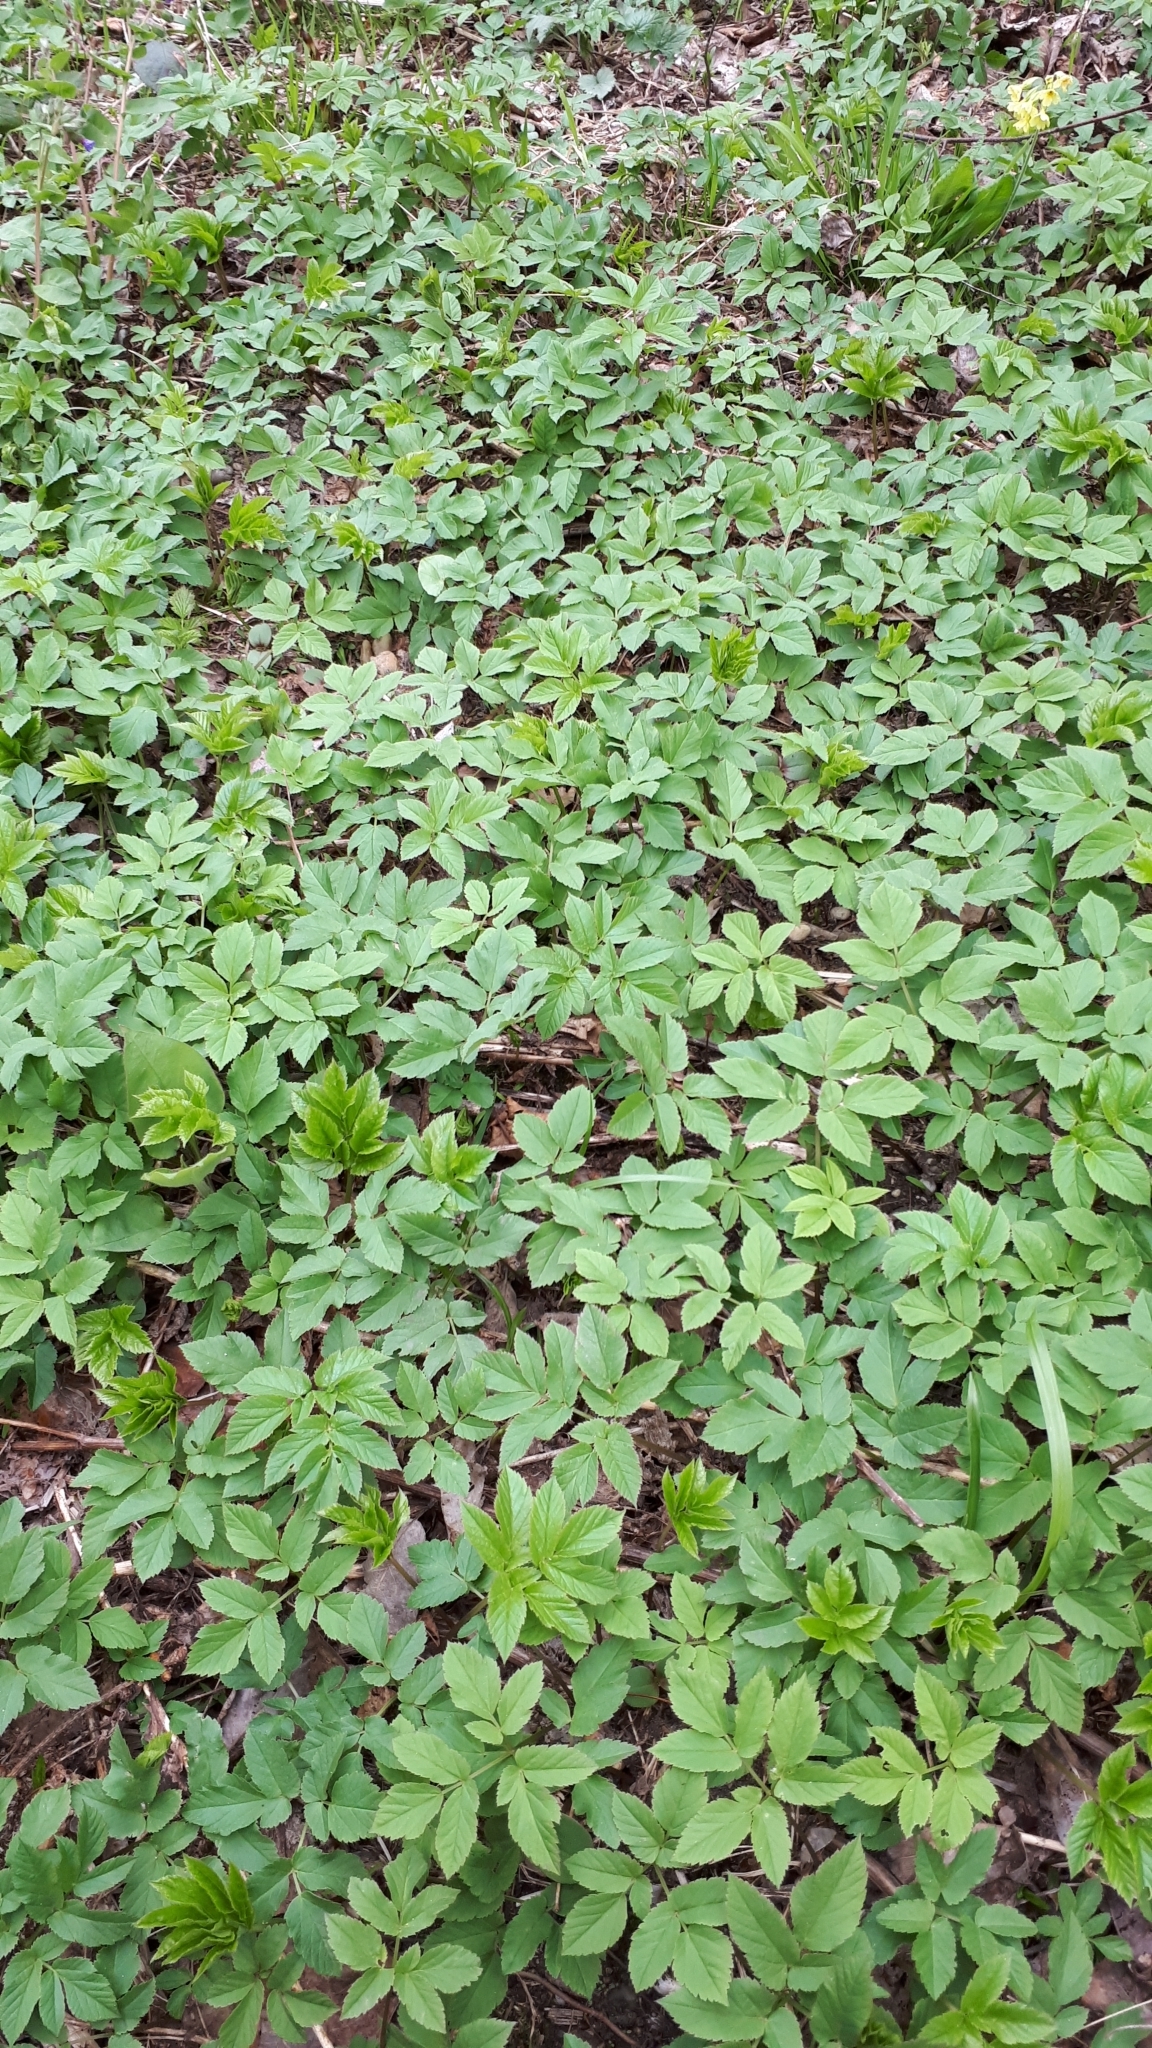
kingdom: Plantae
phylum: Tracheophyta
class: Magnoliopsida
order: Apiales
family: Apiaceae
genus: Aegopodium
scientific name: Aegopodium podagraria
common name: Ground-elder
